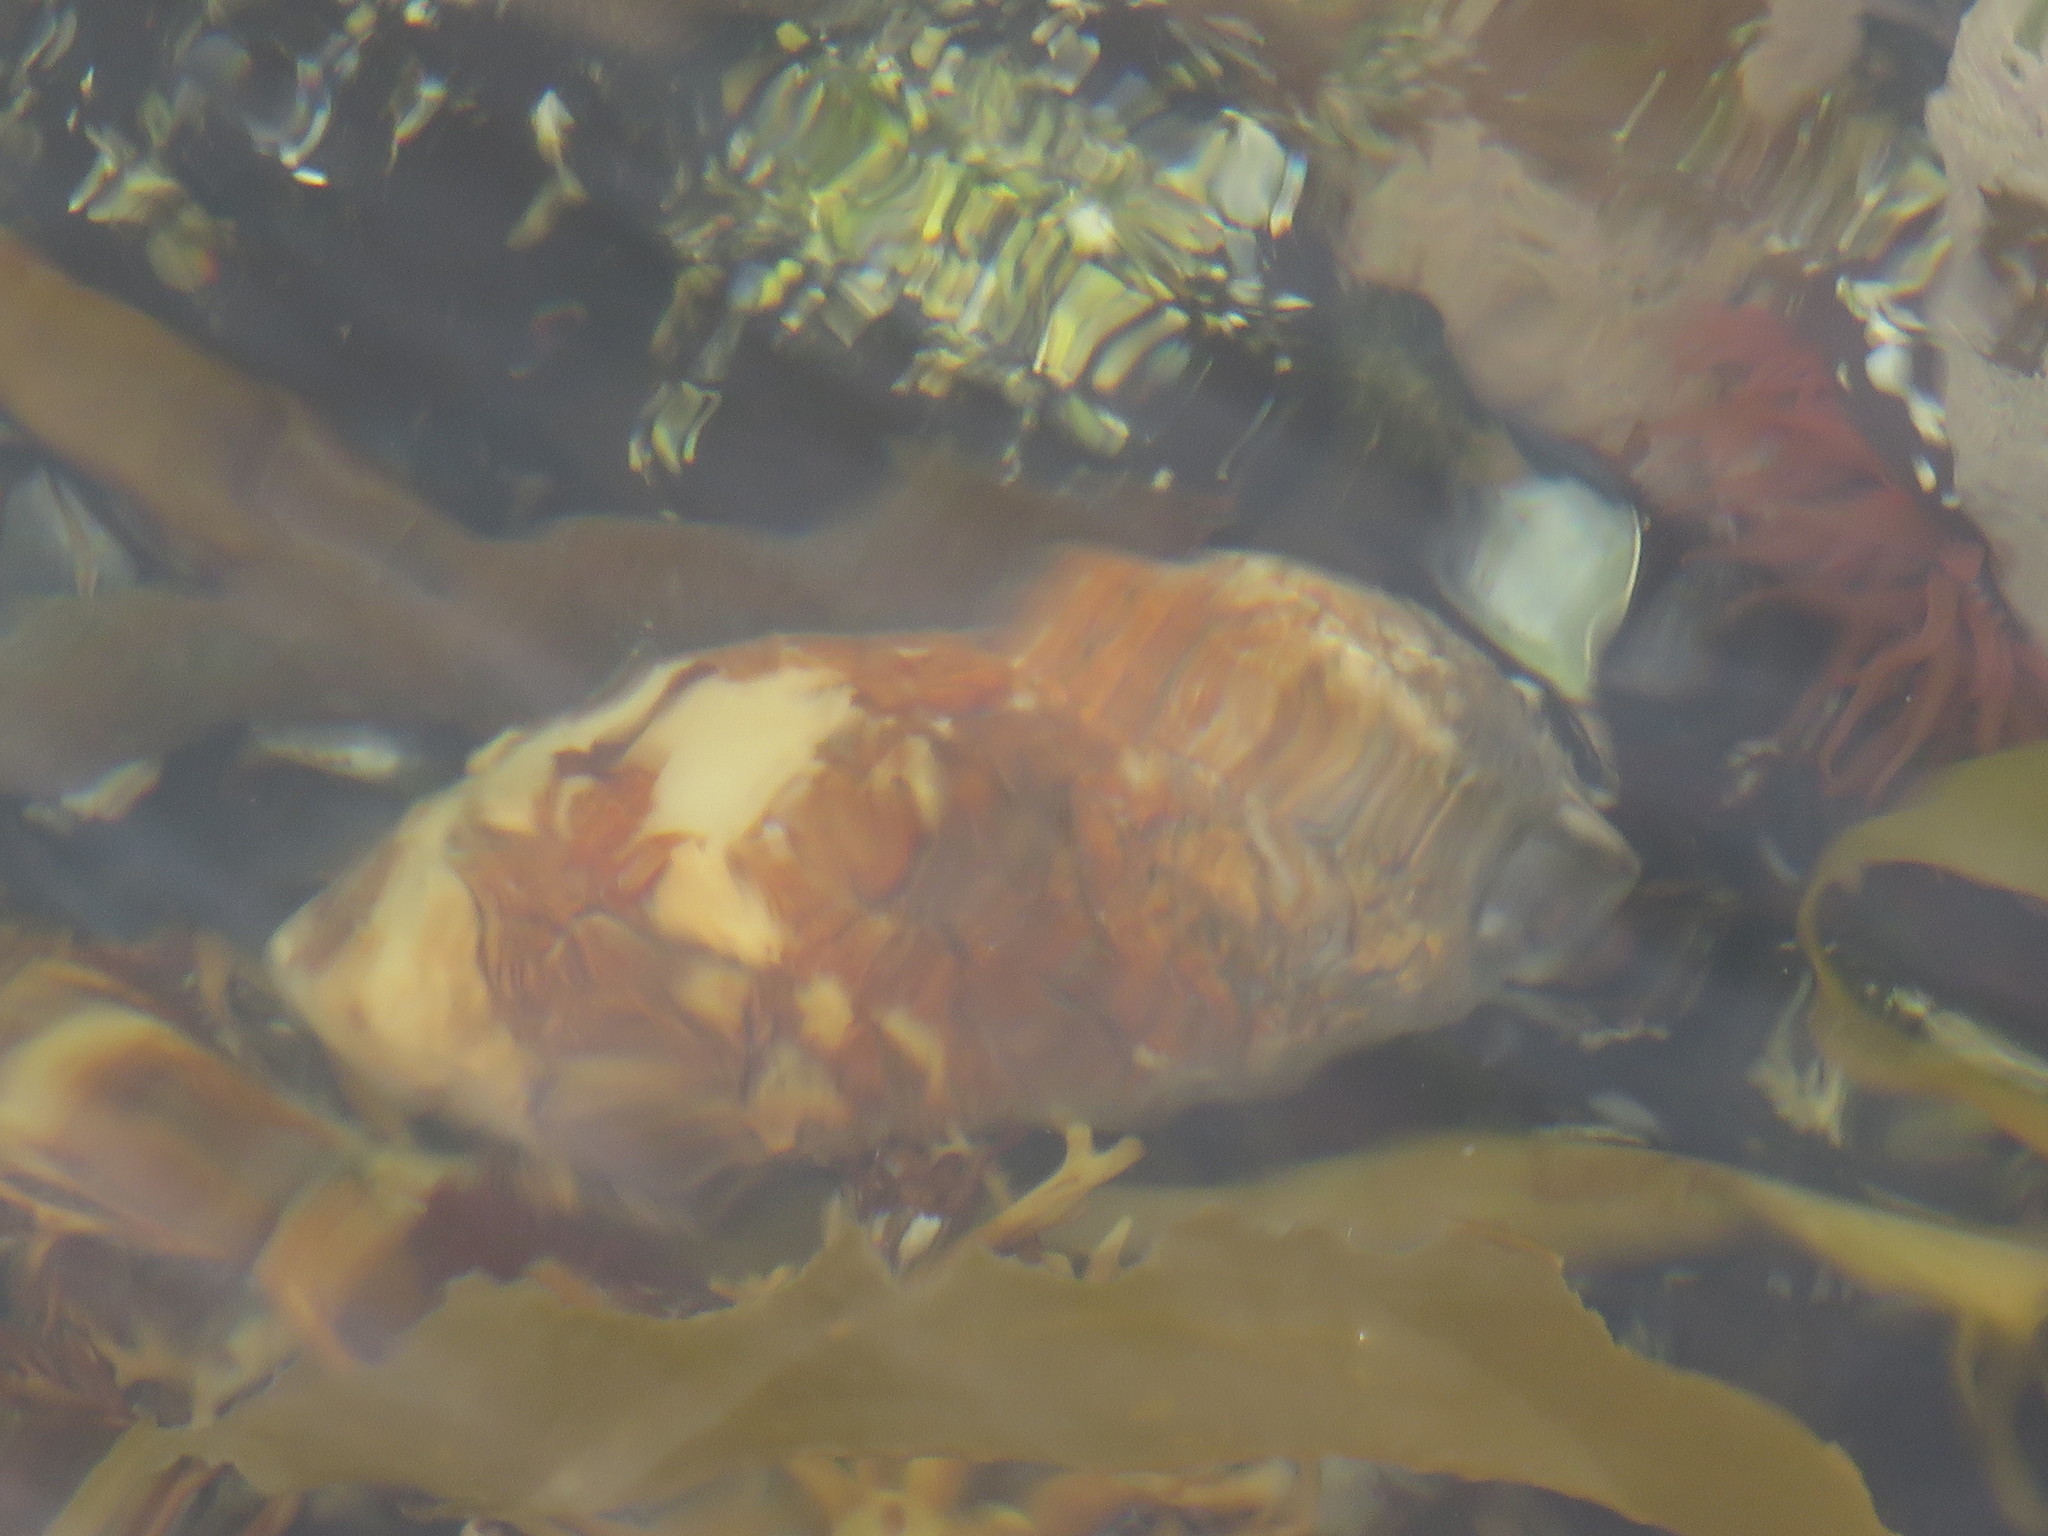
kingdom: Animalia
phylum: Chordata
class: Ascidiacea
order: Stolidobranchia
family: Pyuridae
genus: Pyura
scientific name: Pyura stolonifera
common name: Red bait
